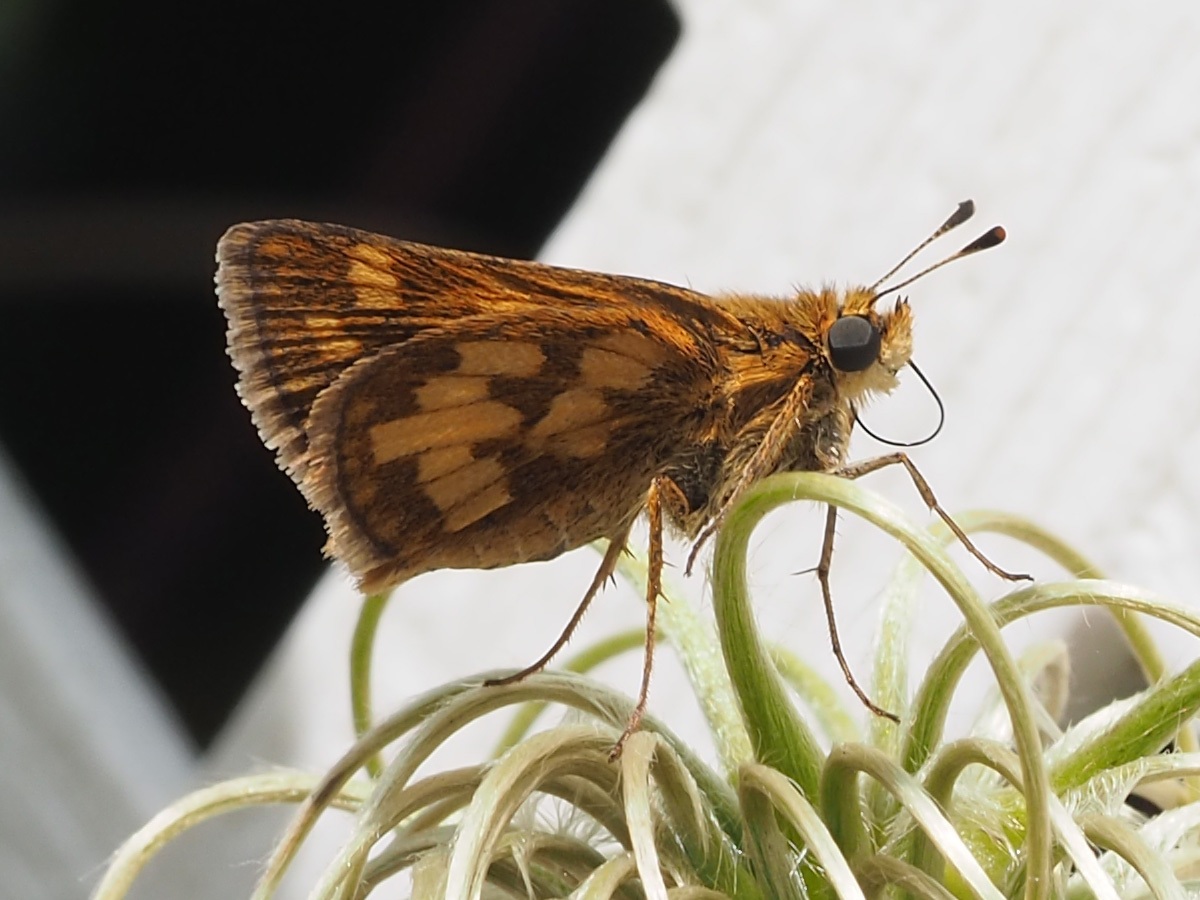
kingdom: Animalia
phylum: Arthropoda
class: Insecta
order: Lepidoptera
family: Hesperiidae
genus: Polites
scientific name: Polites coras
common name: Peck's skipper
